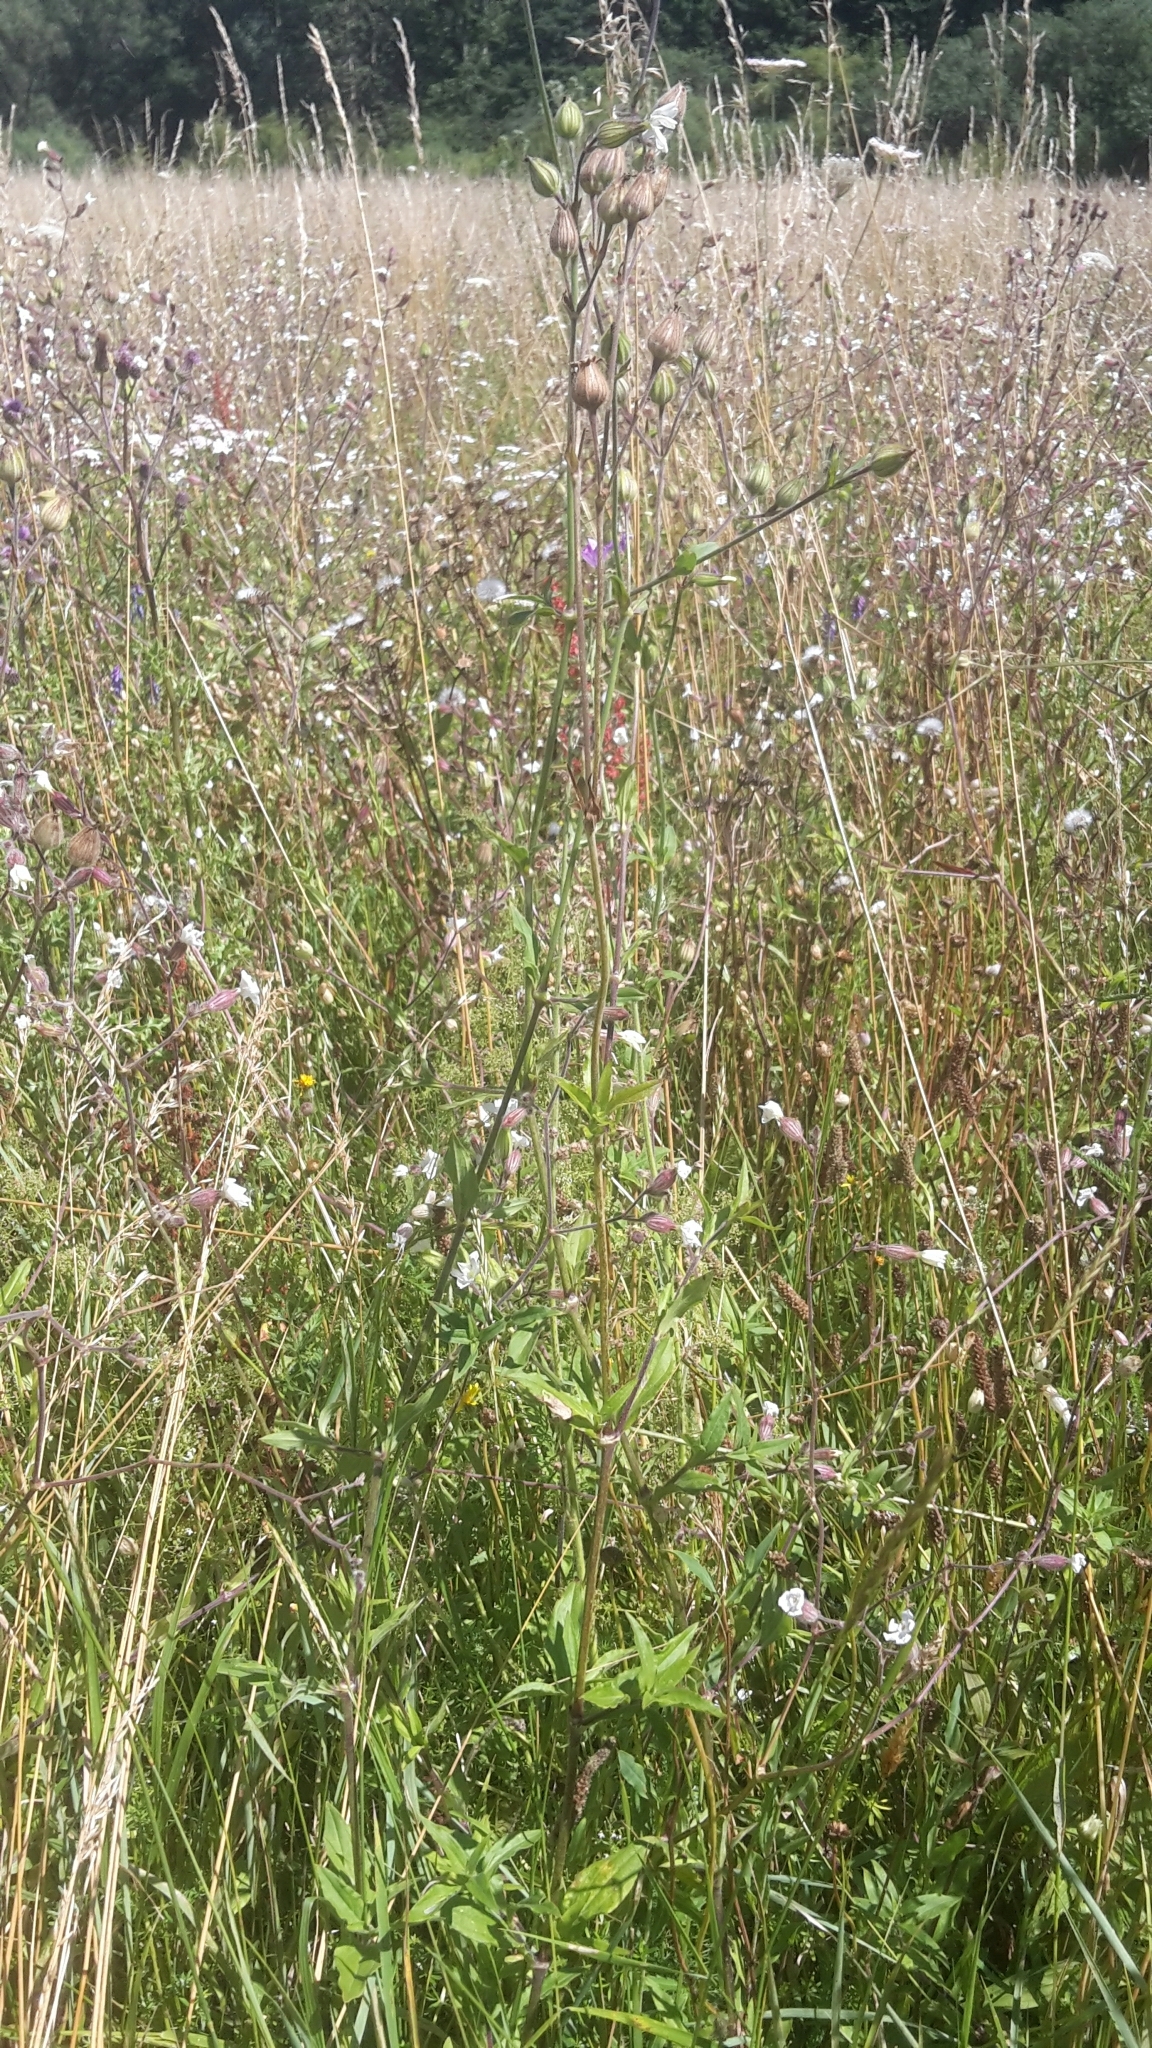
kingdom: Plantae
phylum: Tracheophyta
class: Magnoliopsida
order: Caryophyllales
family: Caryophyllaceae
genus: Silene
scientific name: Silene latifolia
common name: White campion
